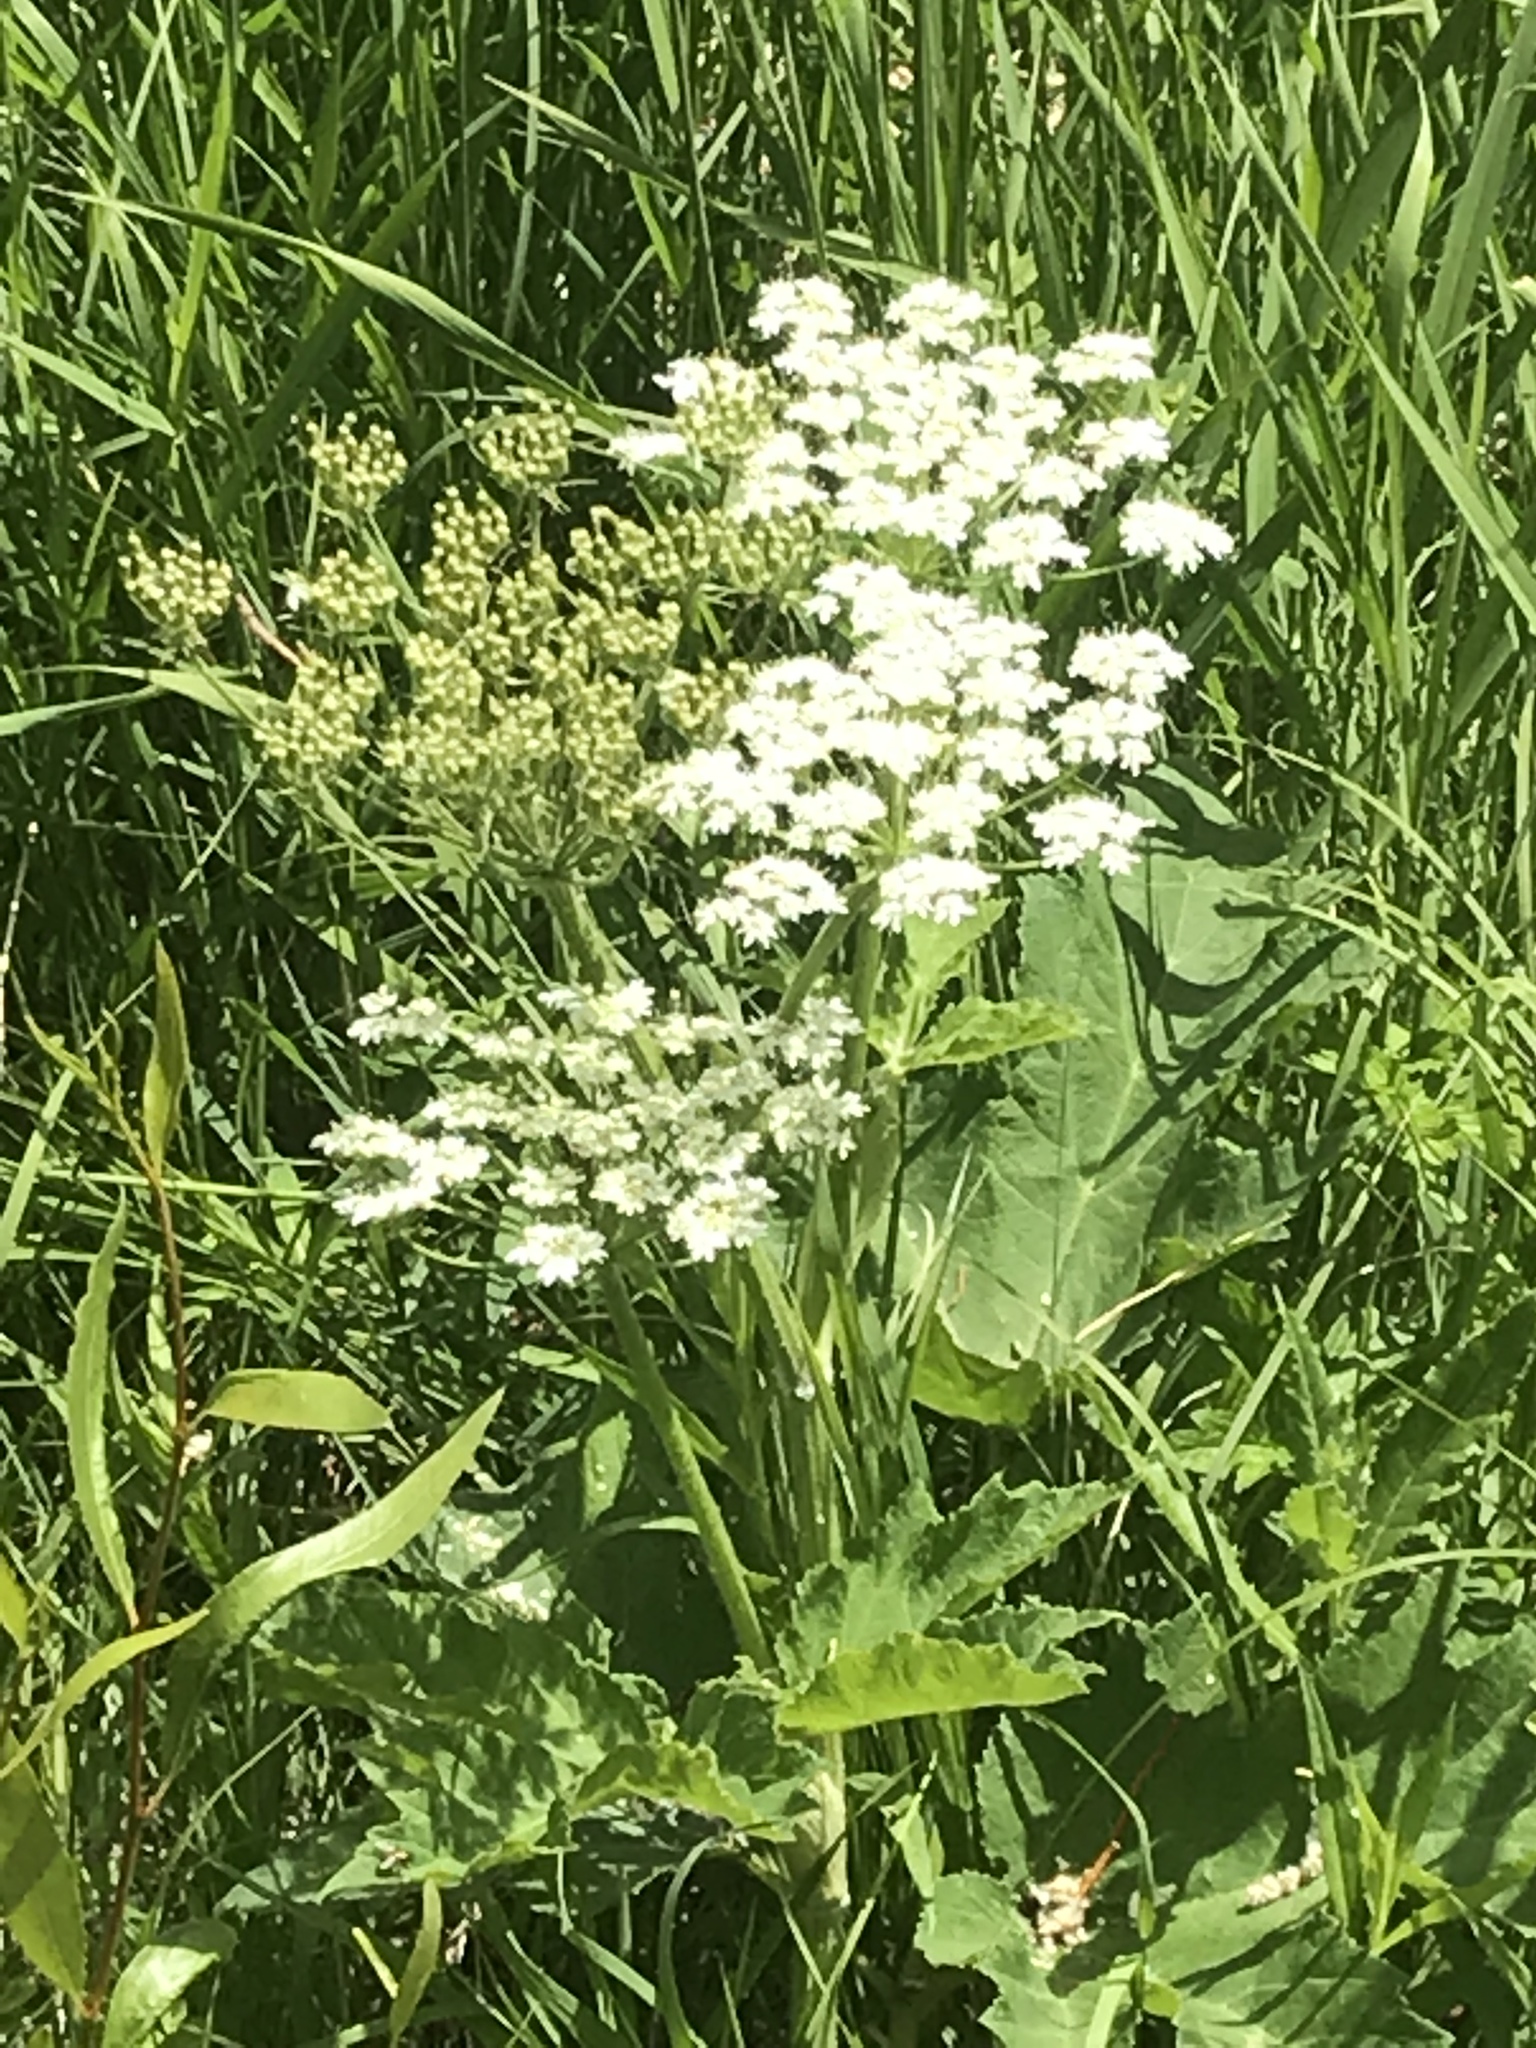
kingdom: Plantae
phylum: Tracheophyta
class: Magnoliopsida
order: Apiales
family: Apiaceae
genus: Heracleum
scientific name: Heracleum maximum
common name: American cow parsnip
